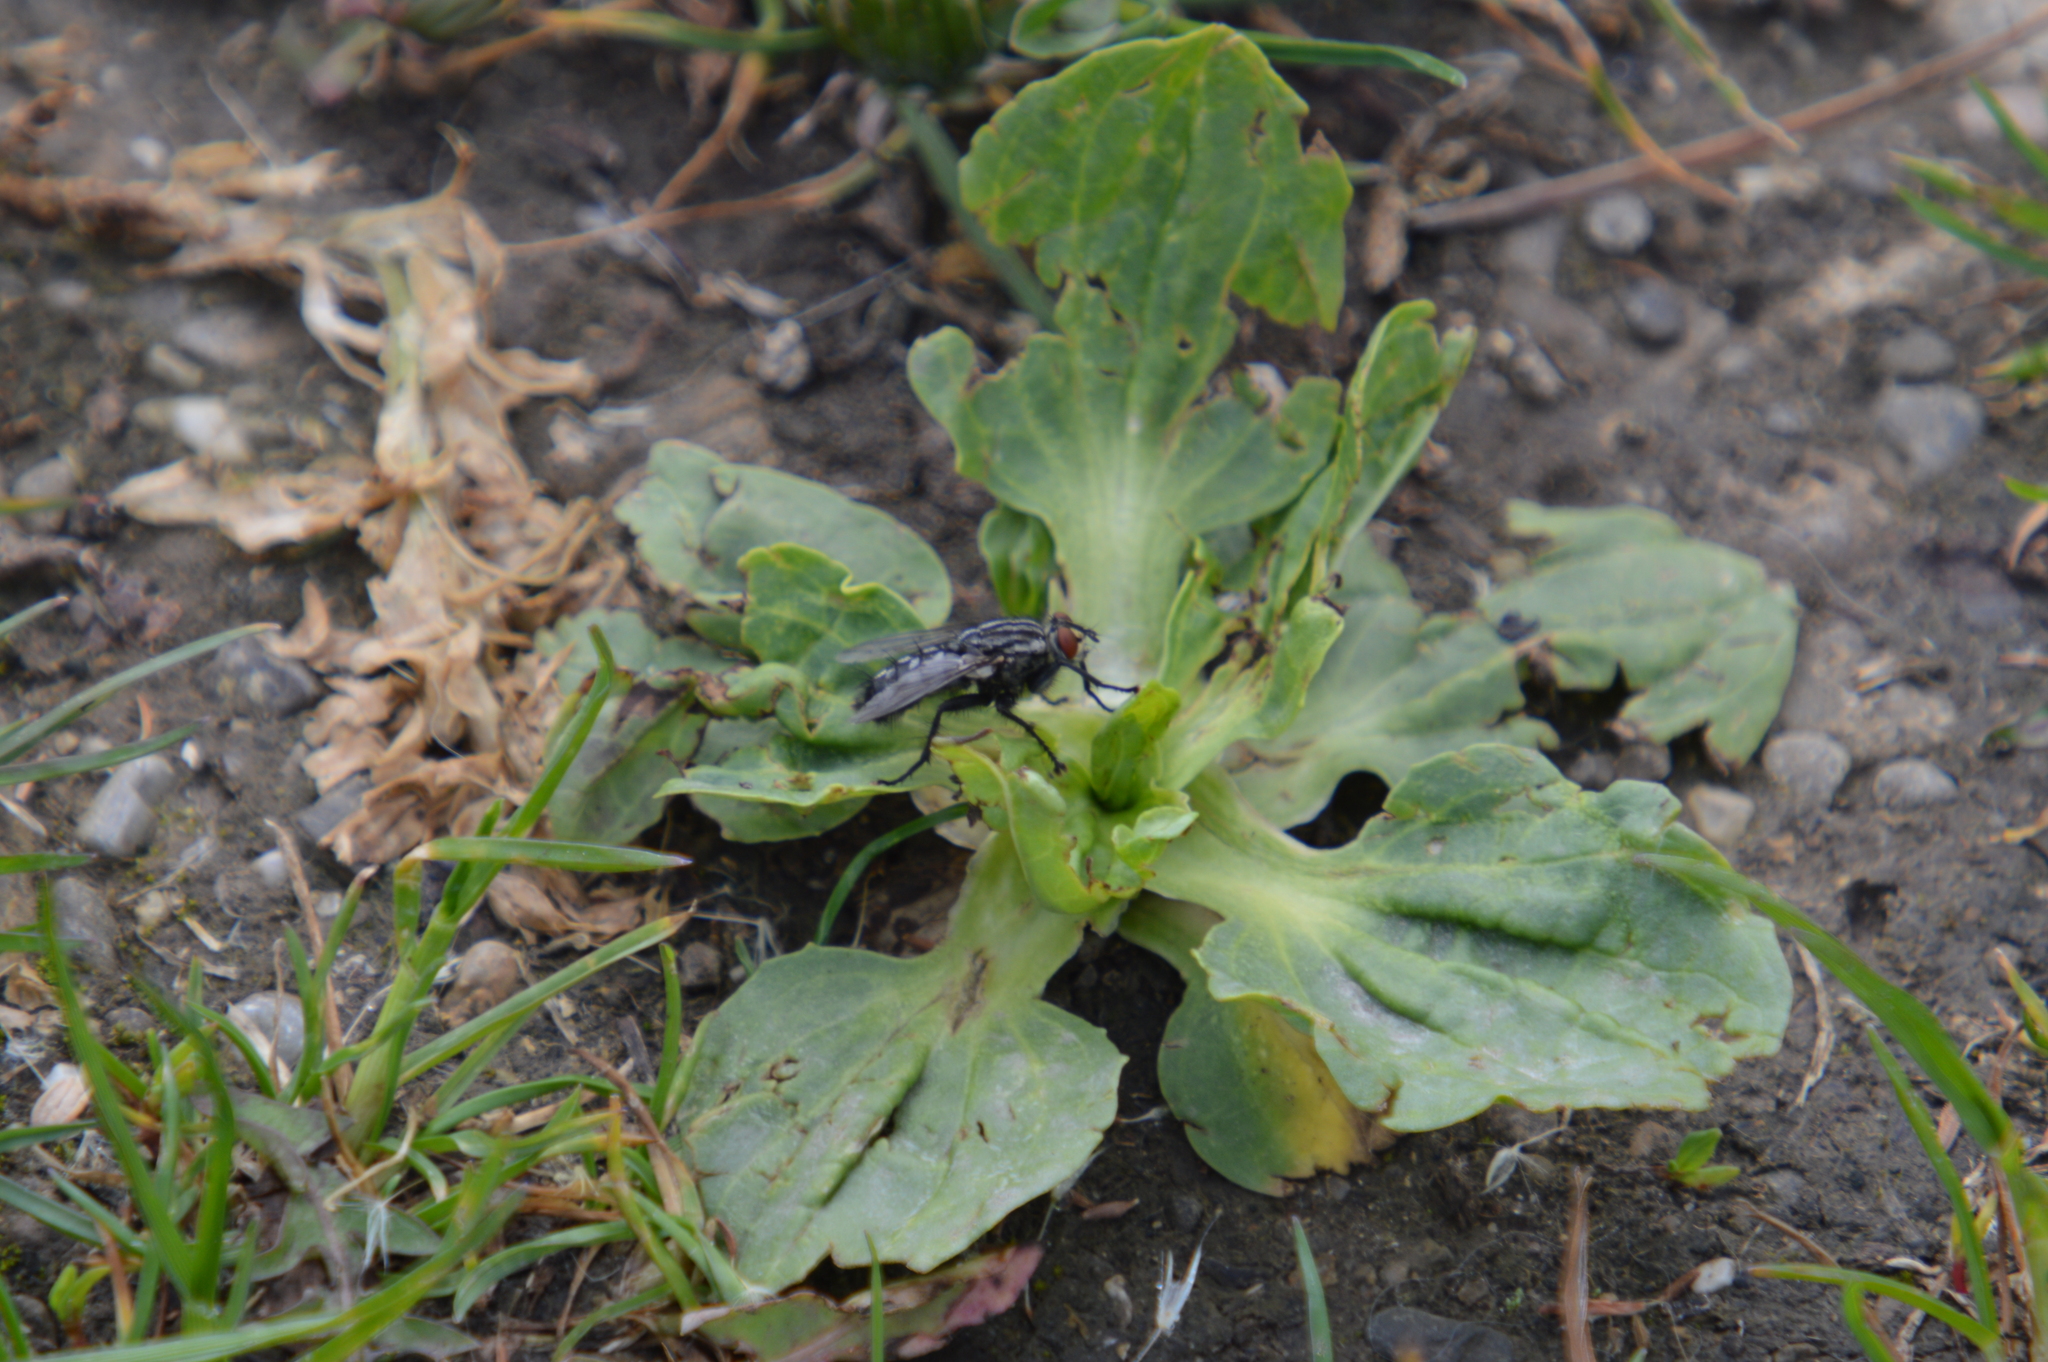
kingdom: Plantae
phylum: Tracheophyta
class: Magnoliopsida
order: Lamiales
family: Plantaginaceae
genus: Plantago
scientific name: Plantago major
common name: Common plantain
